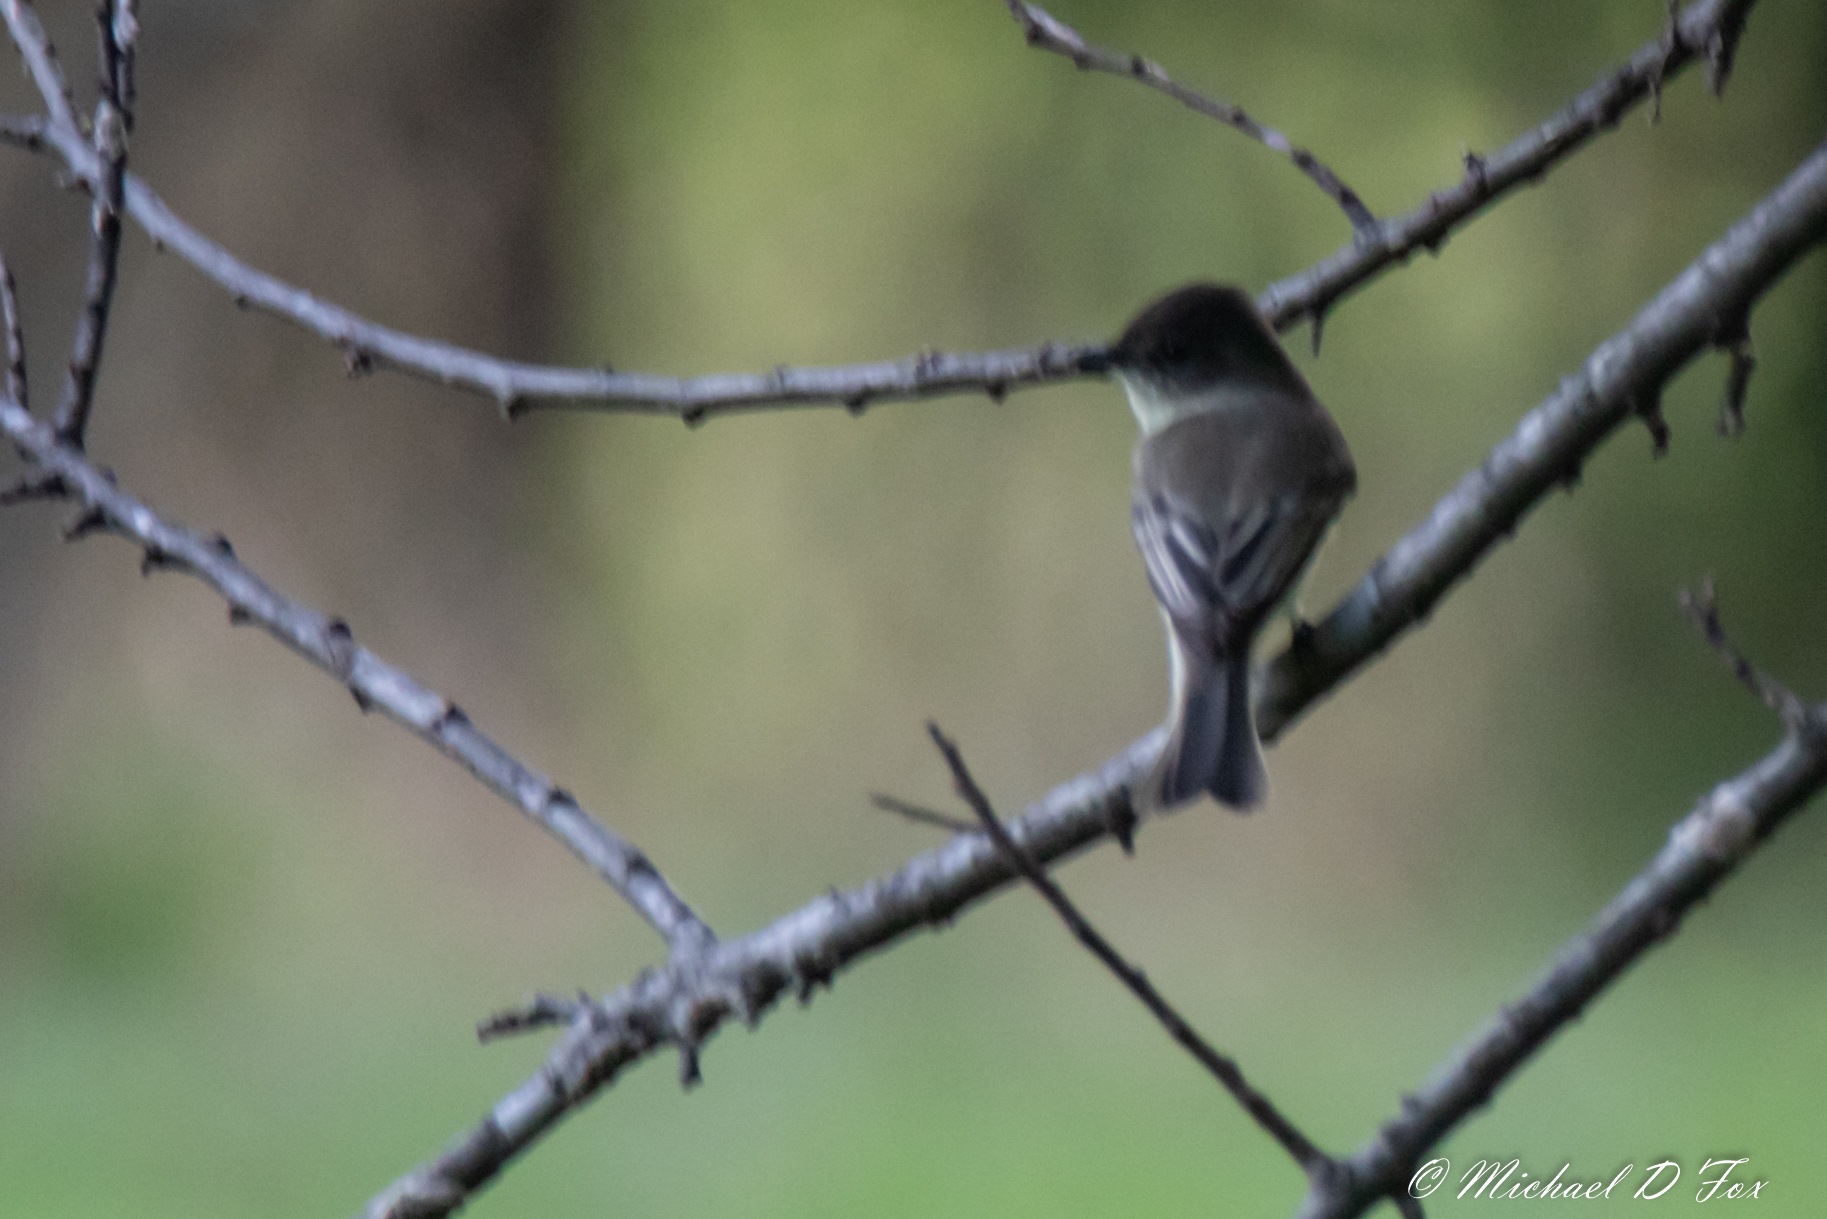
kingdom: Animalia
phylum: Chordata
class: Aves
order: Passeriformes
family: Tyrannidae
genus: Sayornis
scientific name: Sayornis phoebe
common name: Eastern phoebe
